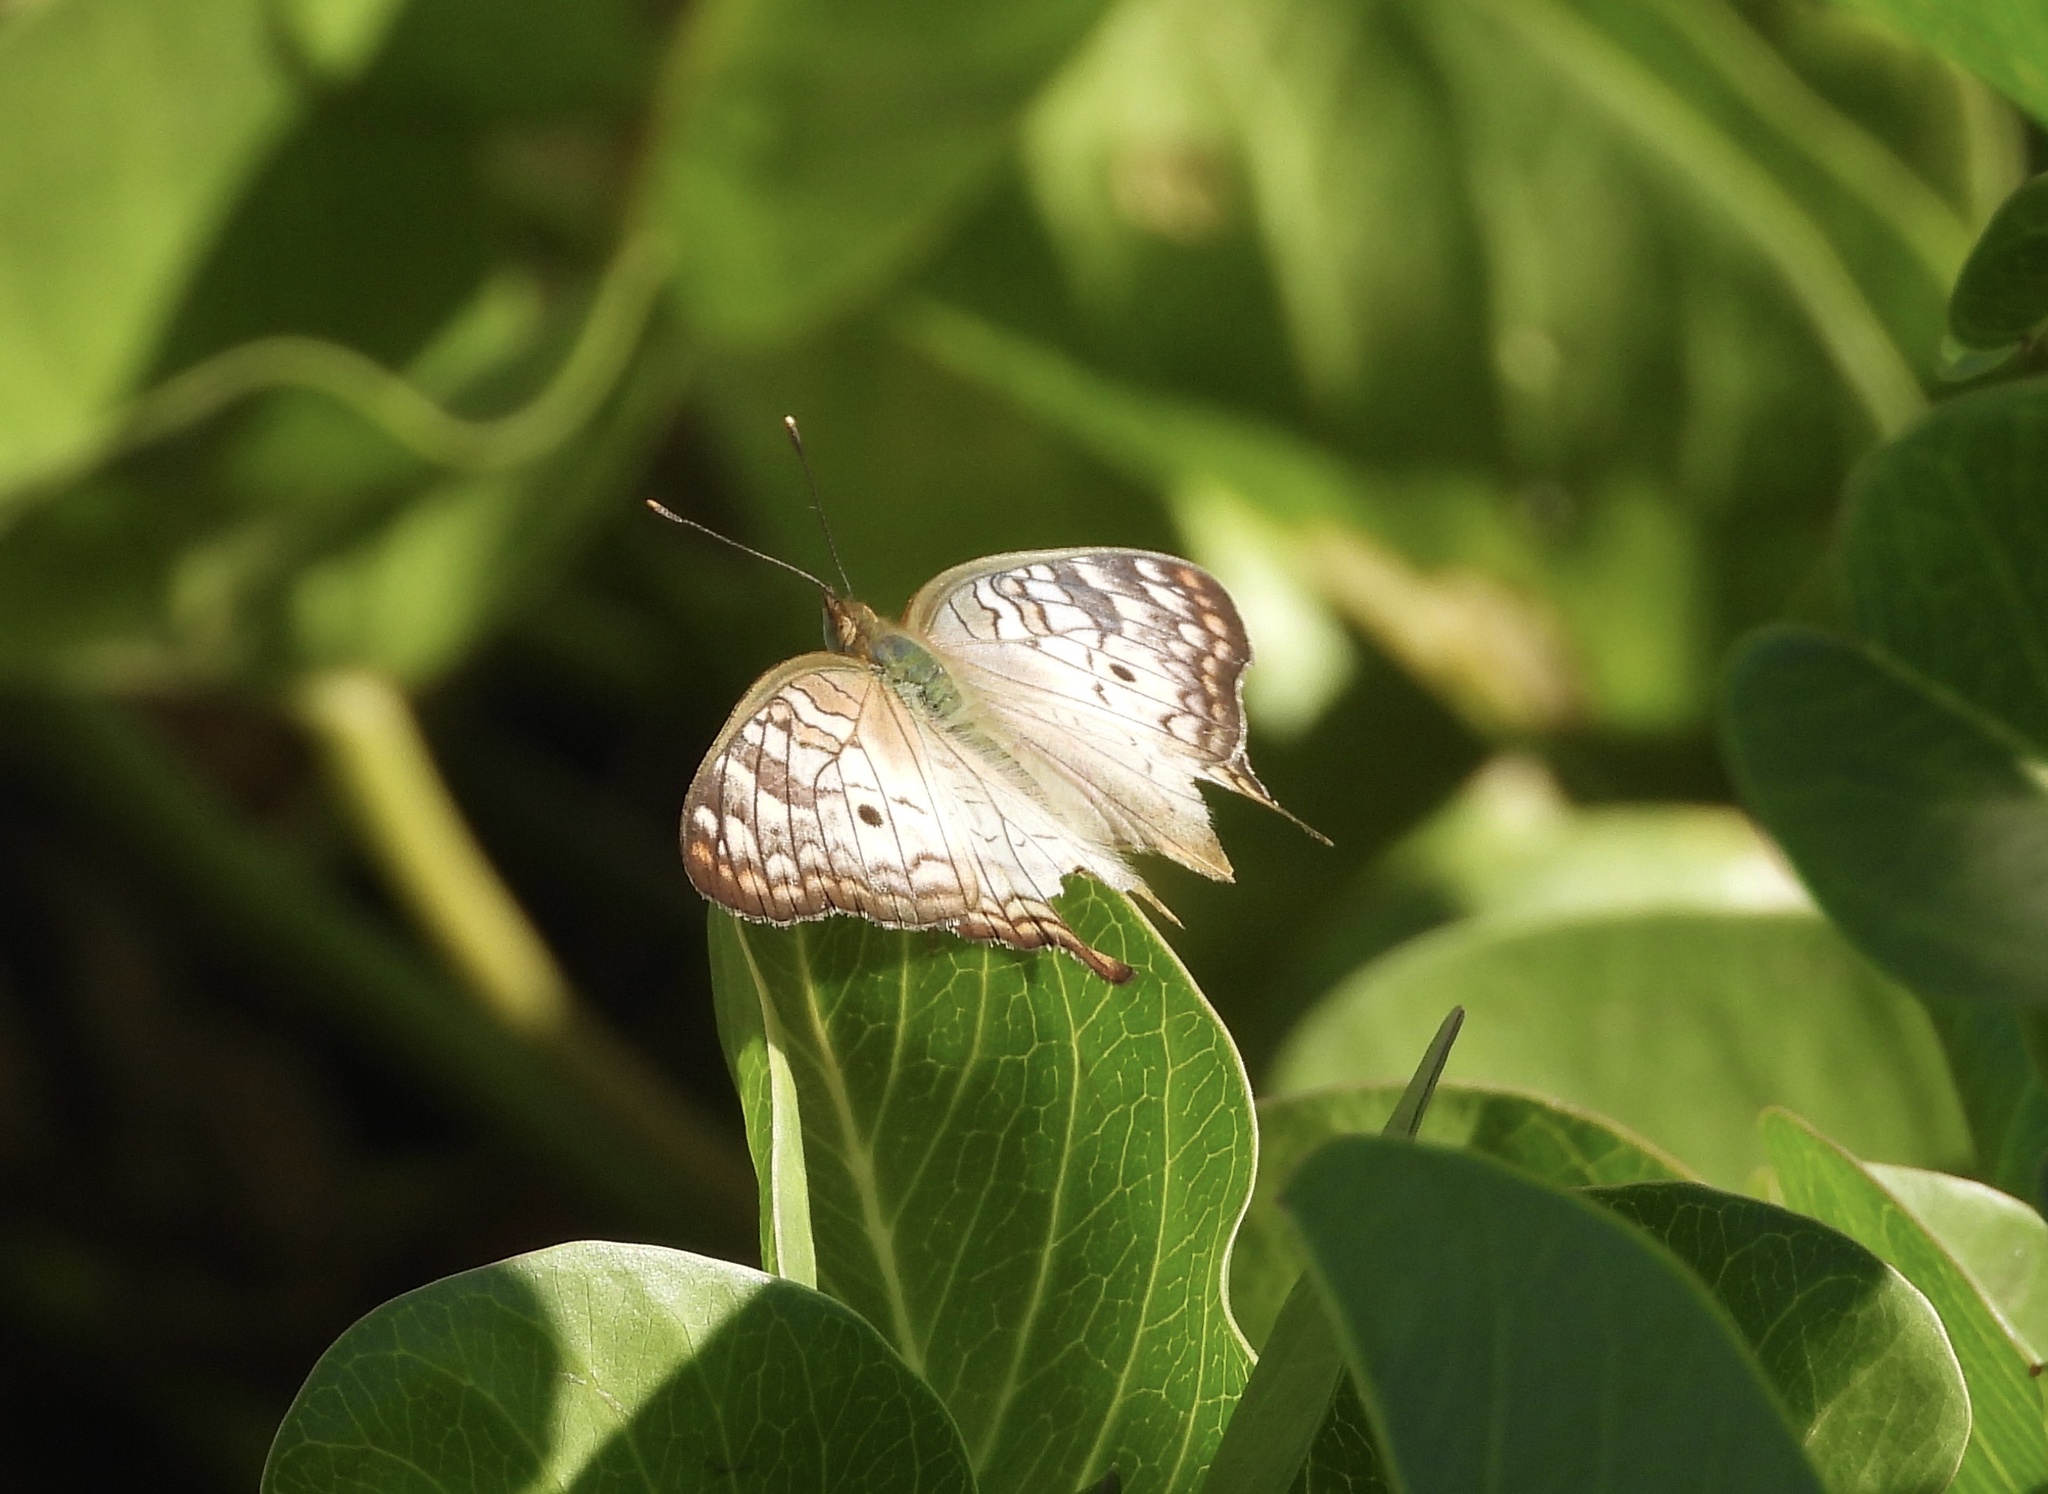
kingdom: Animalia
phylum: Arthropoda
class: Insecta
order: Lepidoptera
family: Nymphalidae
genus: Anartia
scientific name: Anartia jatrophae
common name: White peacock
